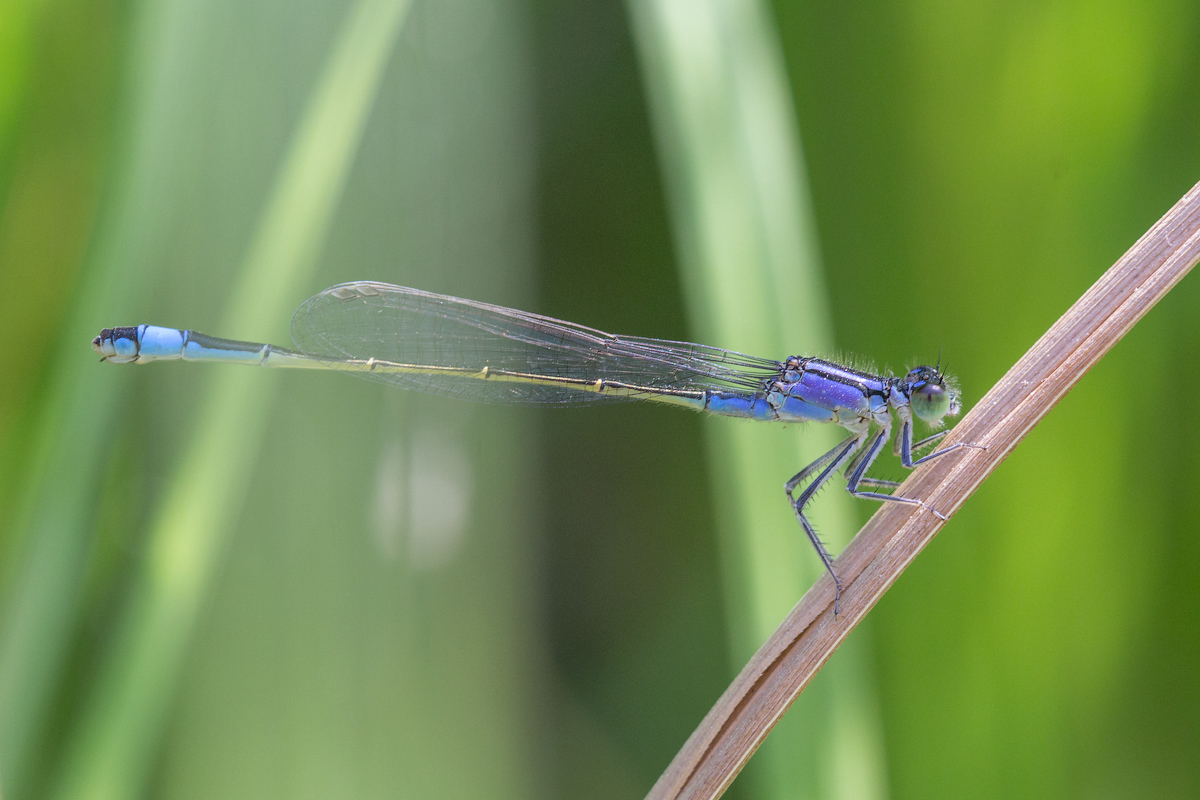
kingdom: Animalia
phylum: Arthropoda
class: Insecta
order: Odonata
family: Coenagrionidae
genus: Ischnura
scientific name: Ischnura elegans
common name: Blue-tailed damselfly
